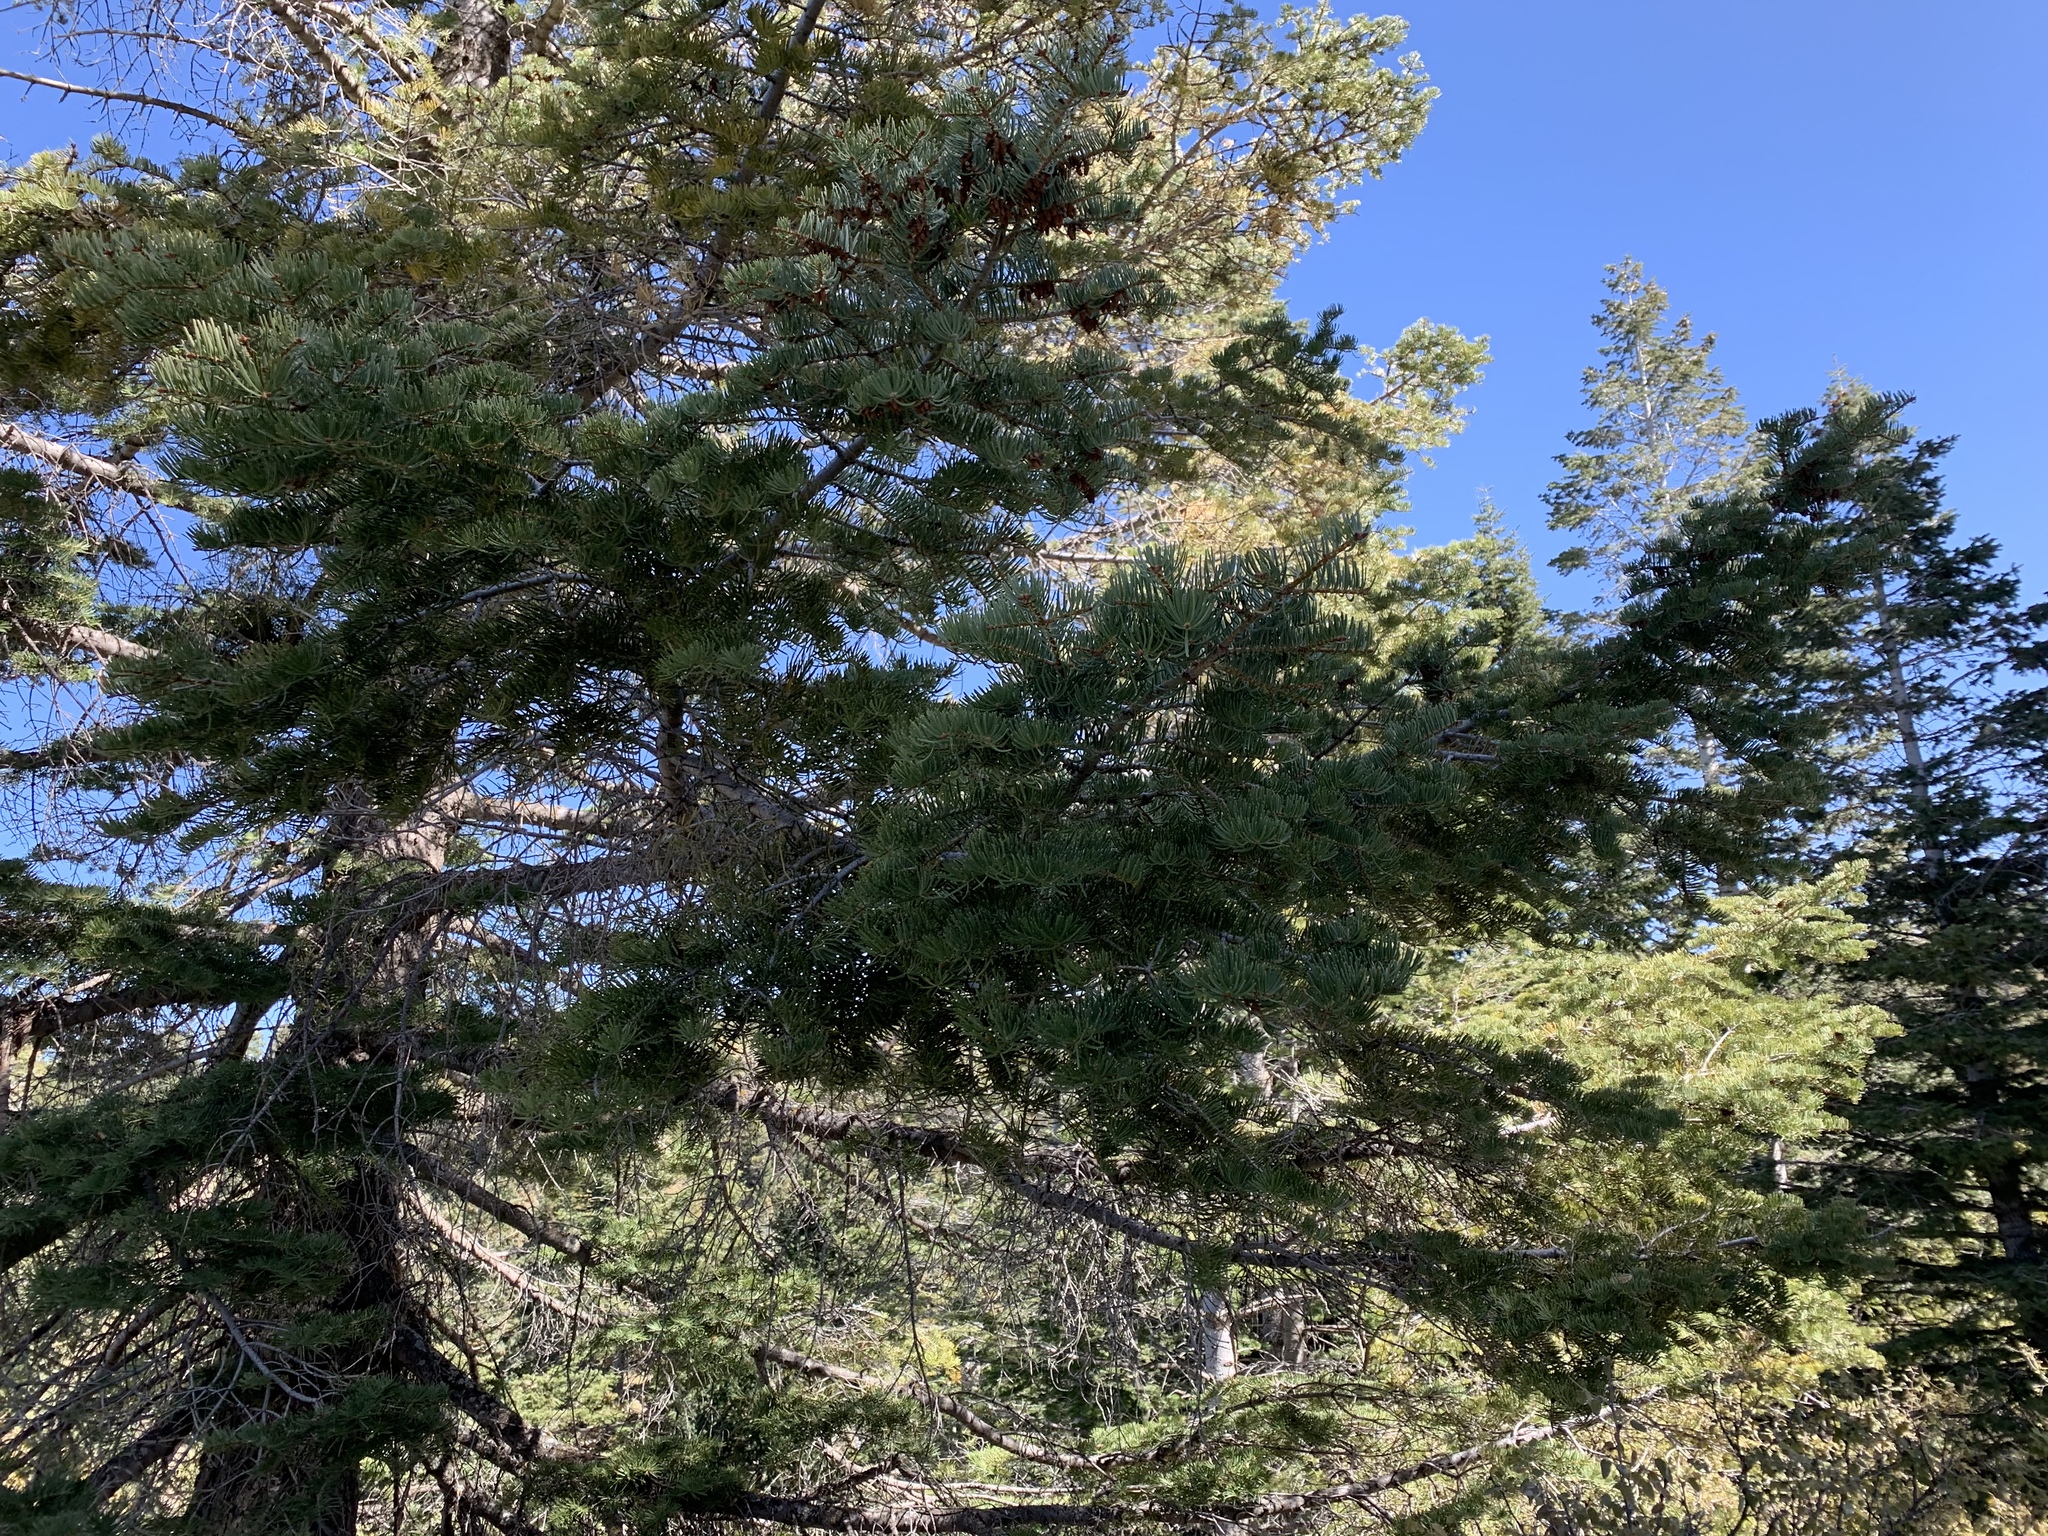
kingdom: Plantae
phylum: Tracheophyta
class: Pinopsida
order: Pinales
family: Pinaceae
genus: Abies
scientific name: Abies concolor
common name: Colorado fir
